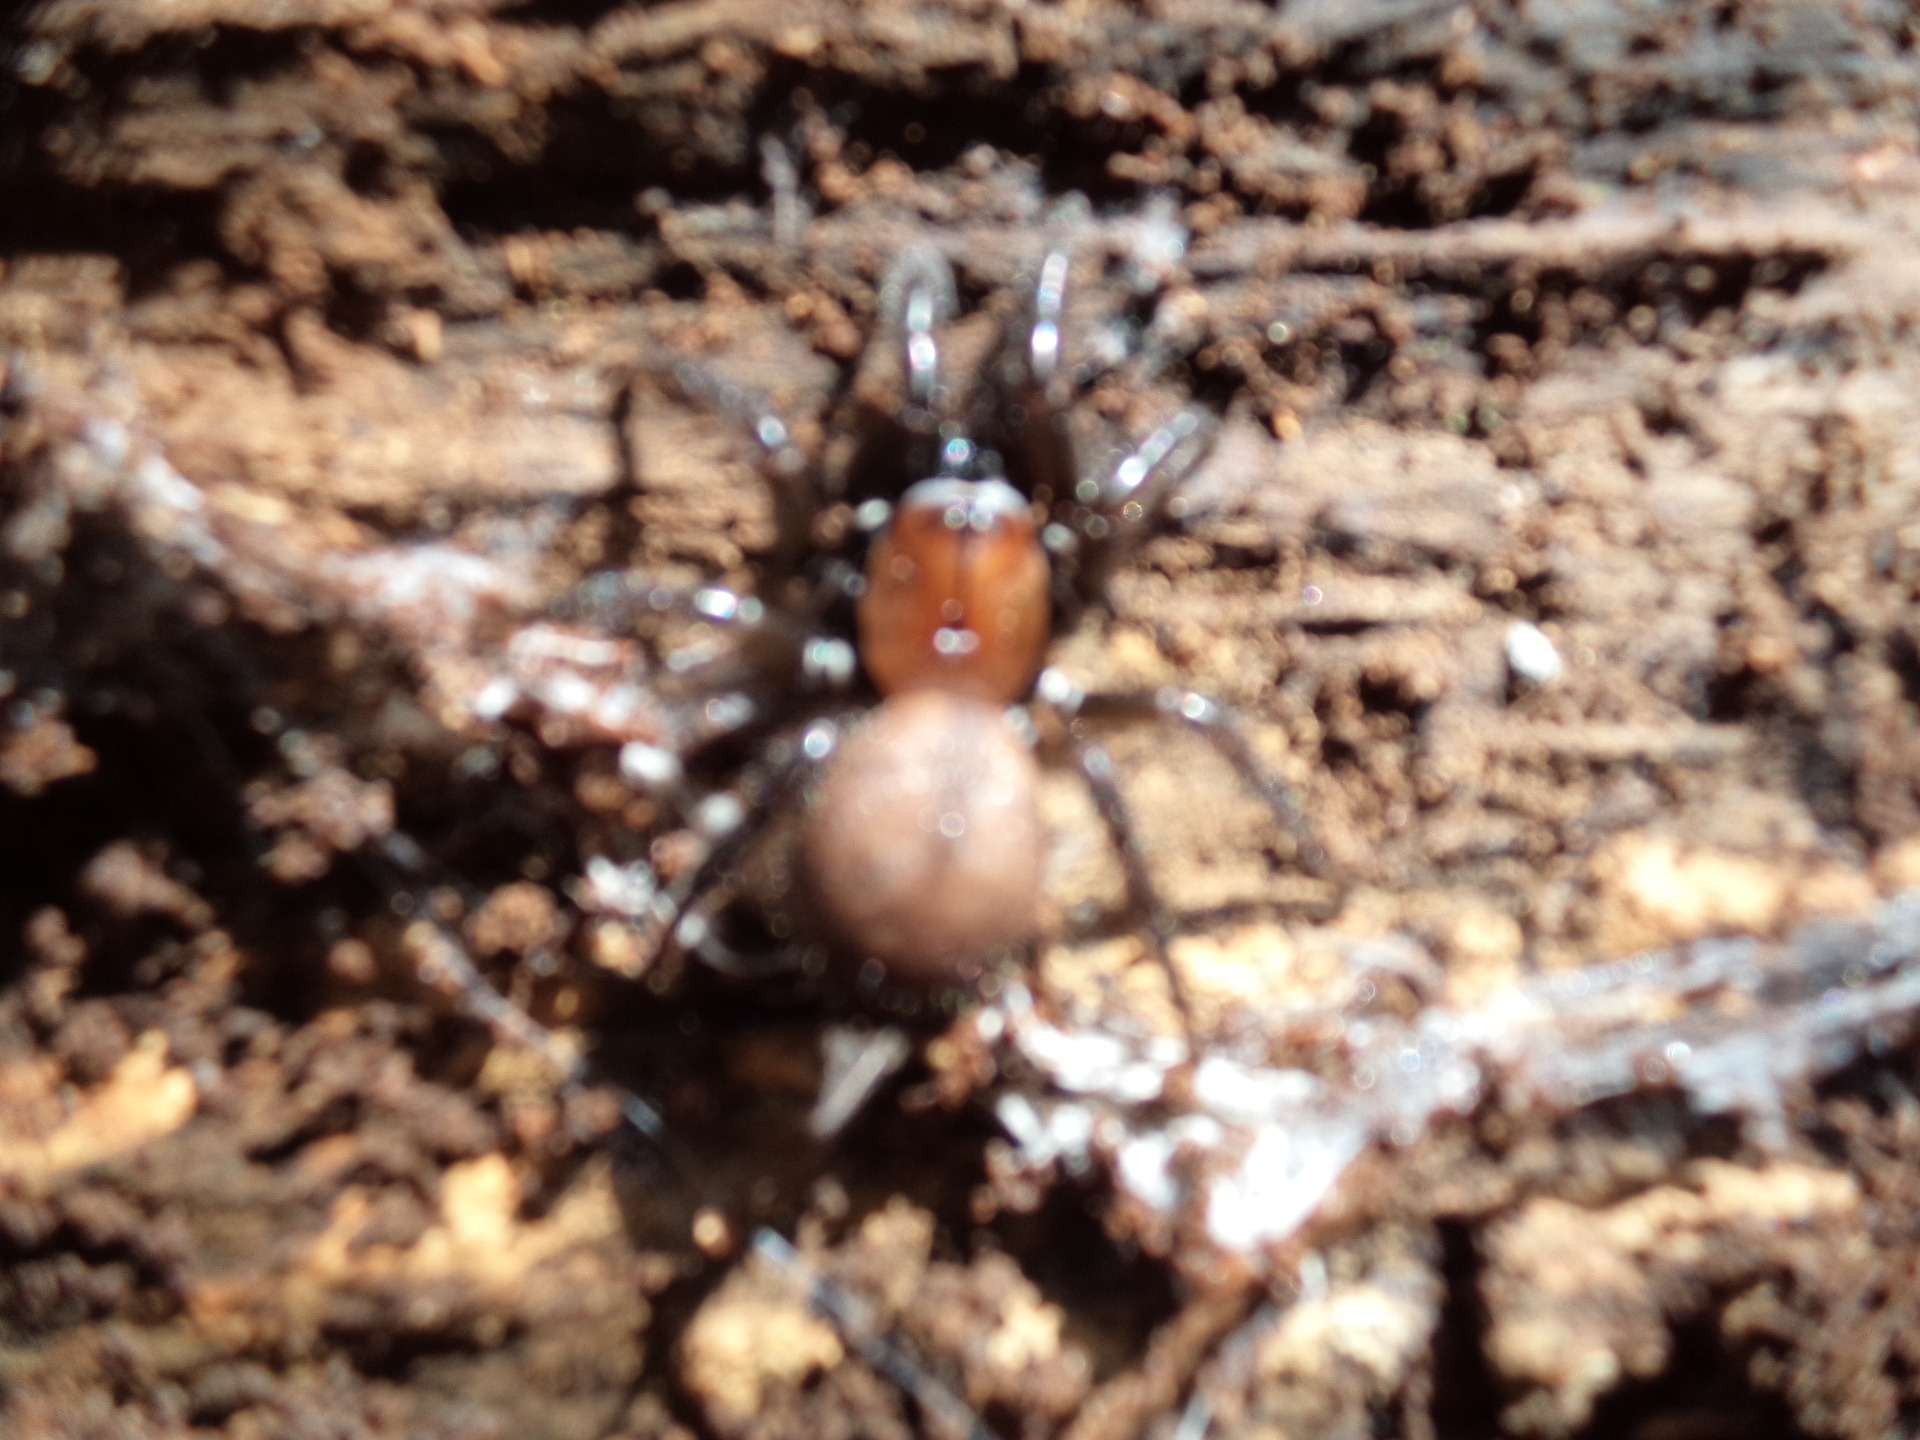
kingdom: Animalia
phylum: Arthropoda
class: Arachnida
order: Araneae
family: Porrhothelidae
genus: Porrhothele
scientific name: Porrhothele antipodiana
